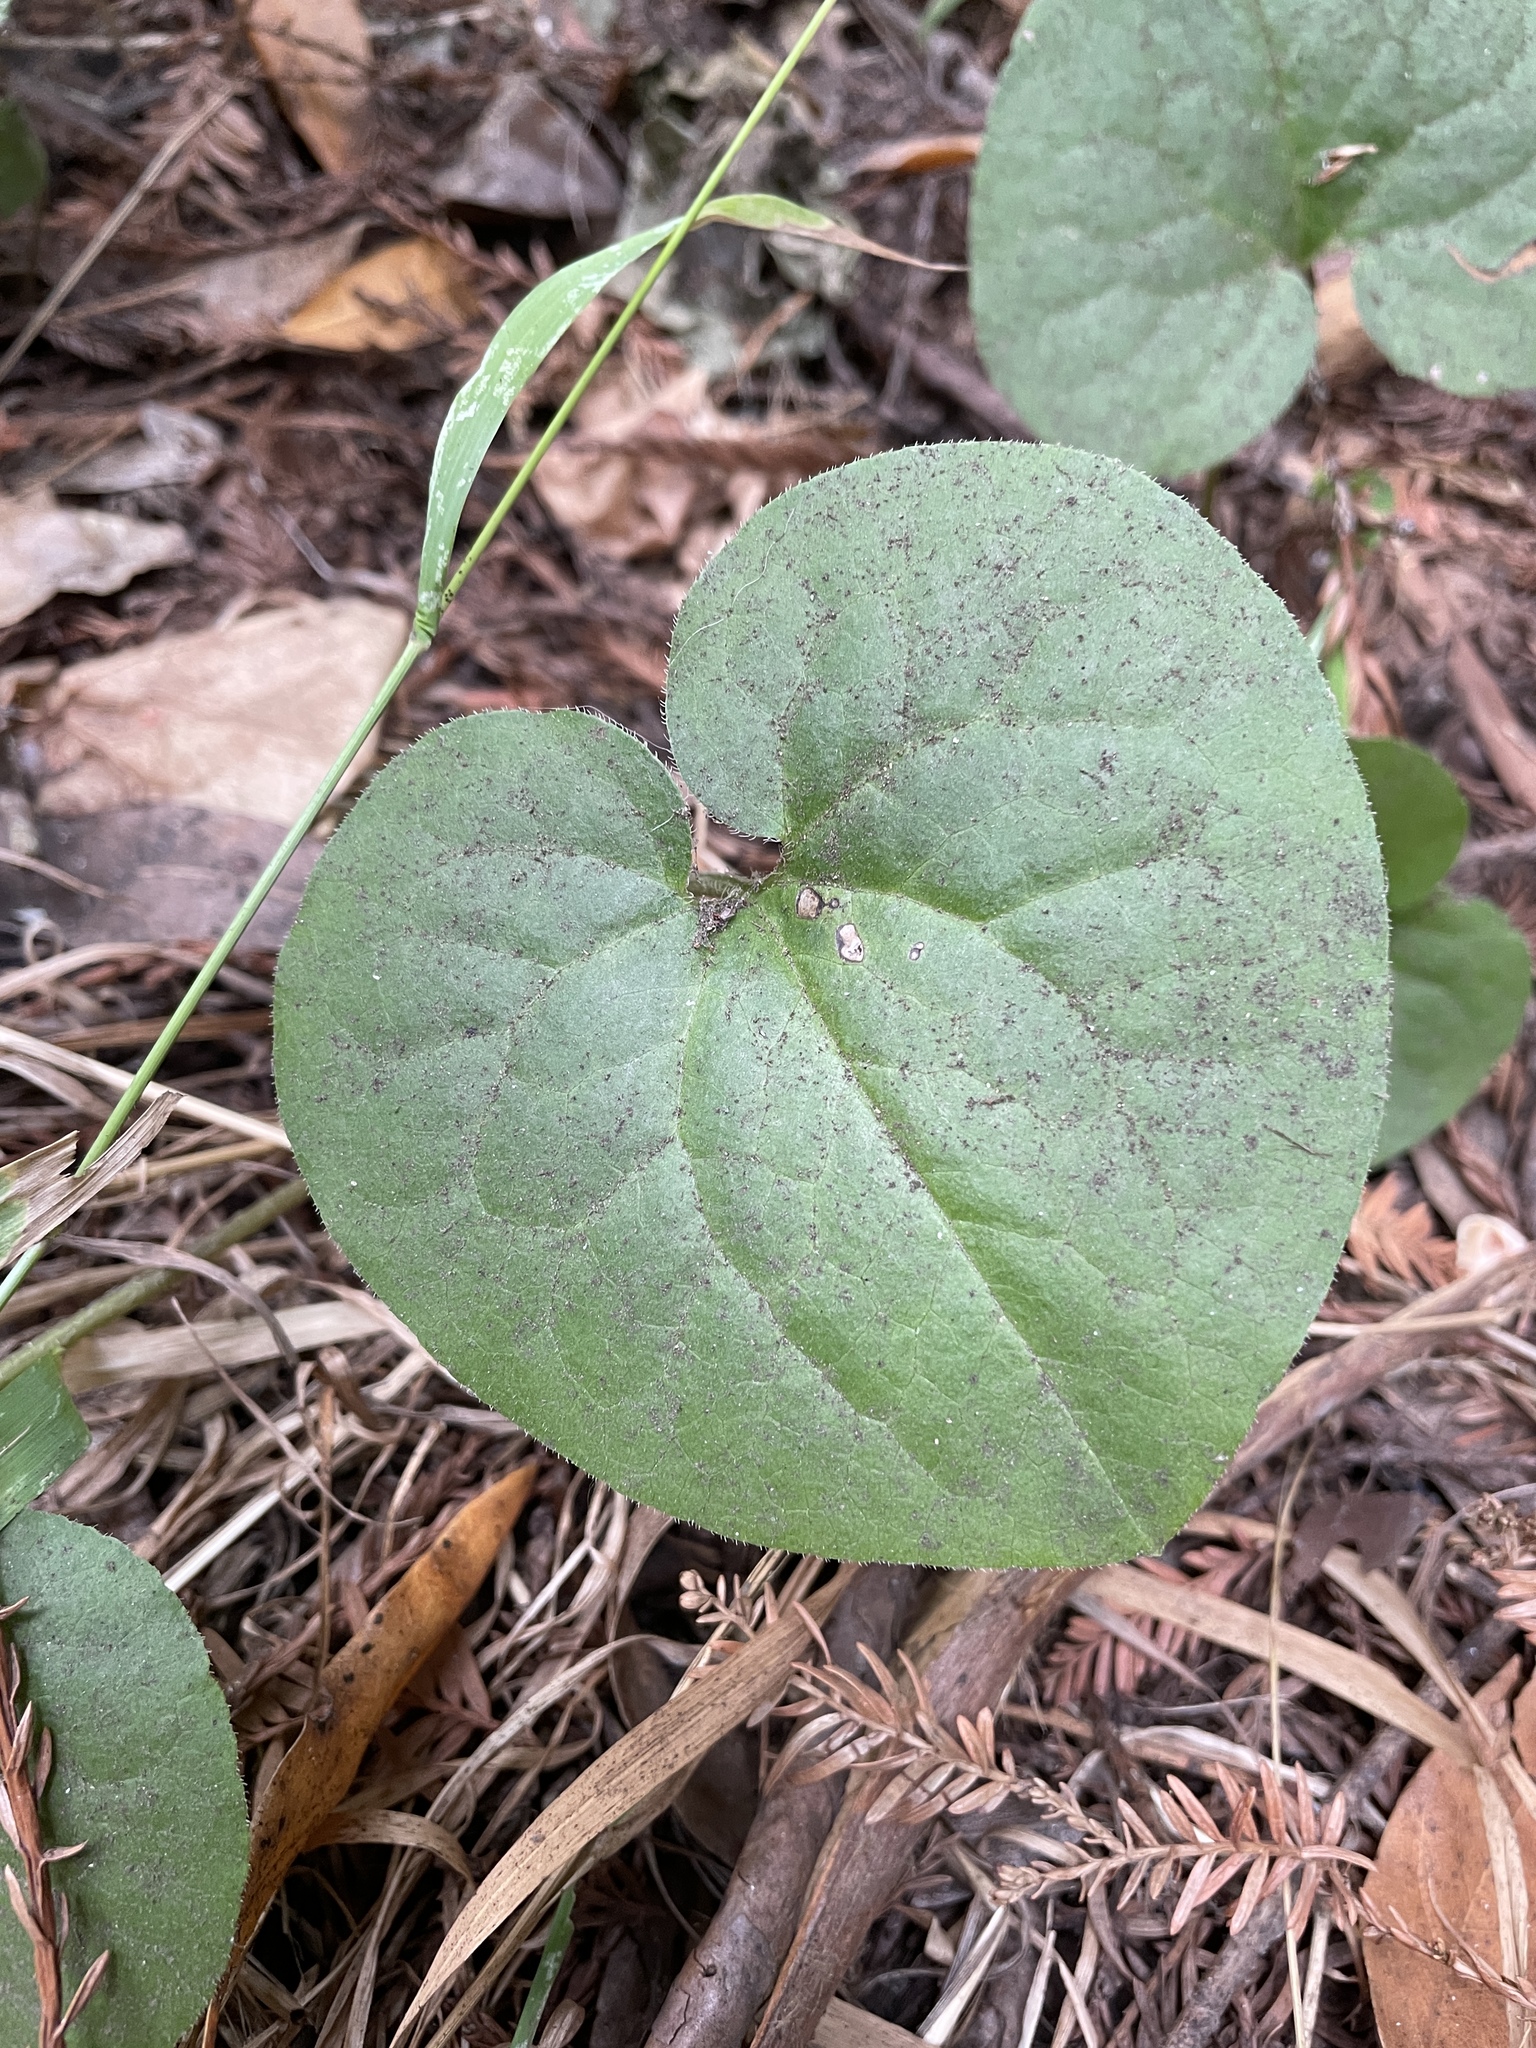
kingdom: Plantae
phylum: Tracheophyta
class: Magnoliopsida
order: Piperales
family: Aristolochiaceae
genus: Asarum
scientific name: Asarum caudatum
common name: Wild ginger
